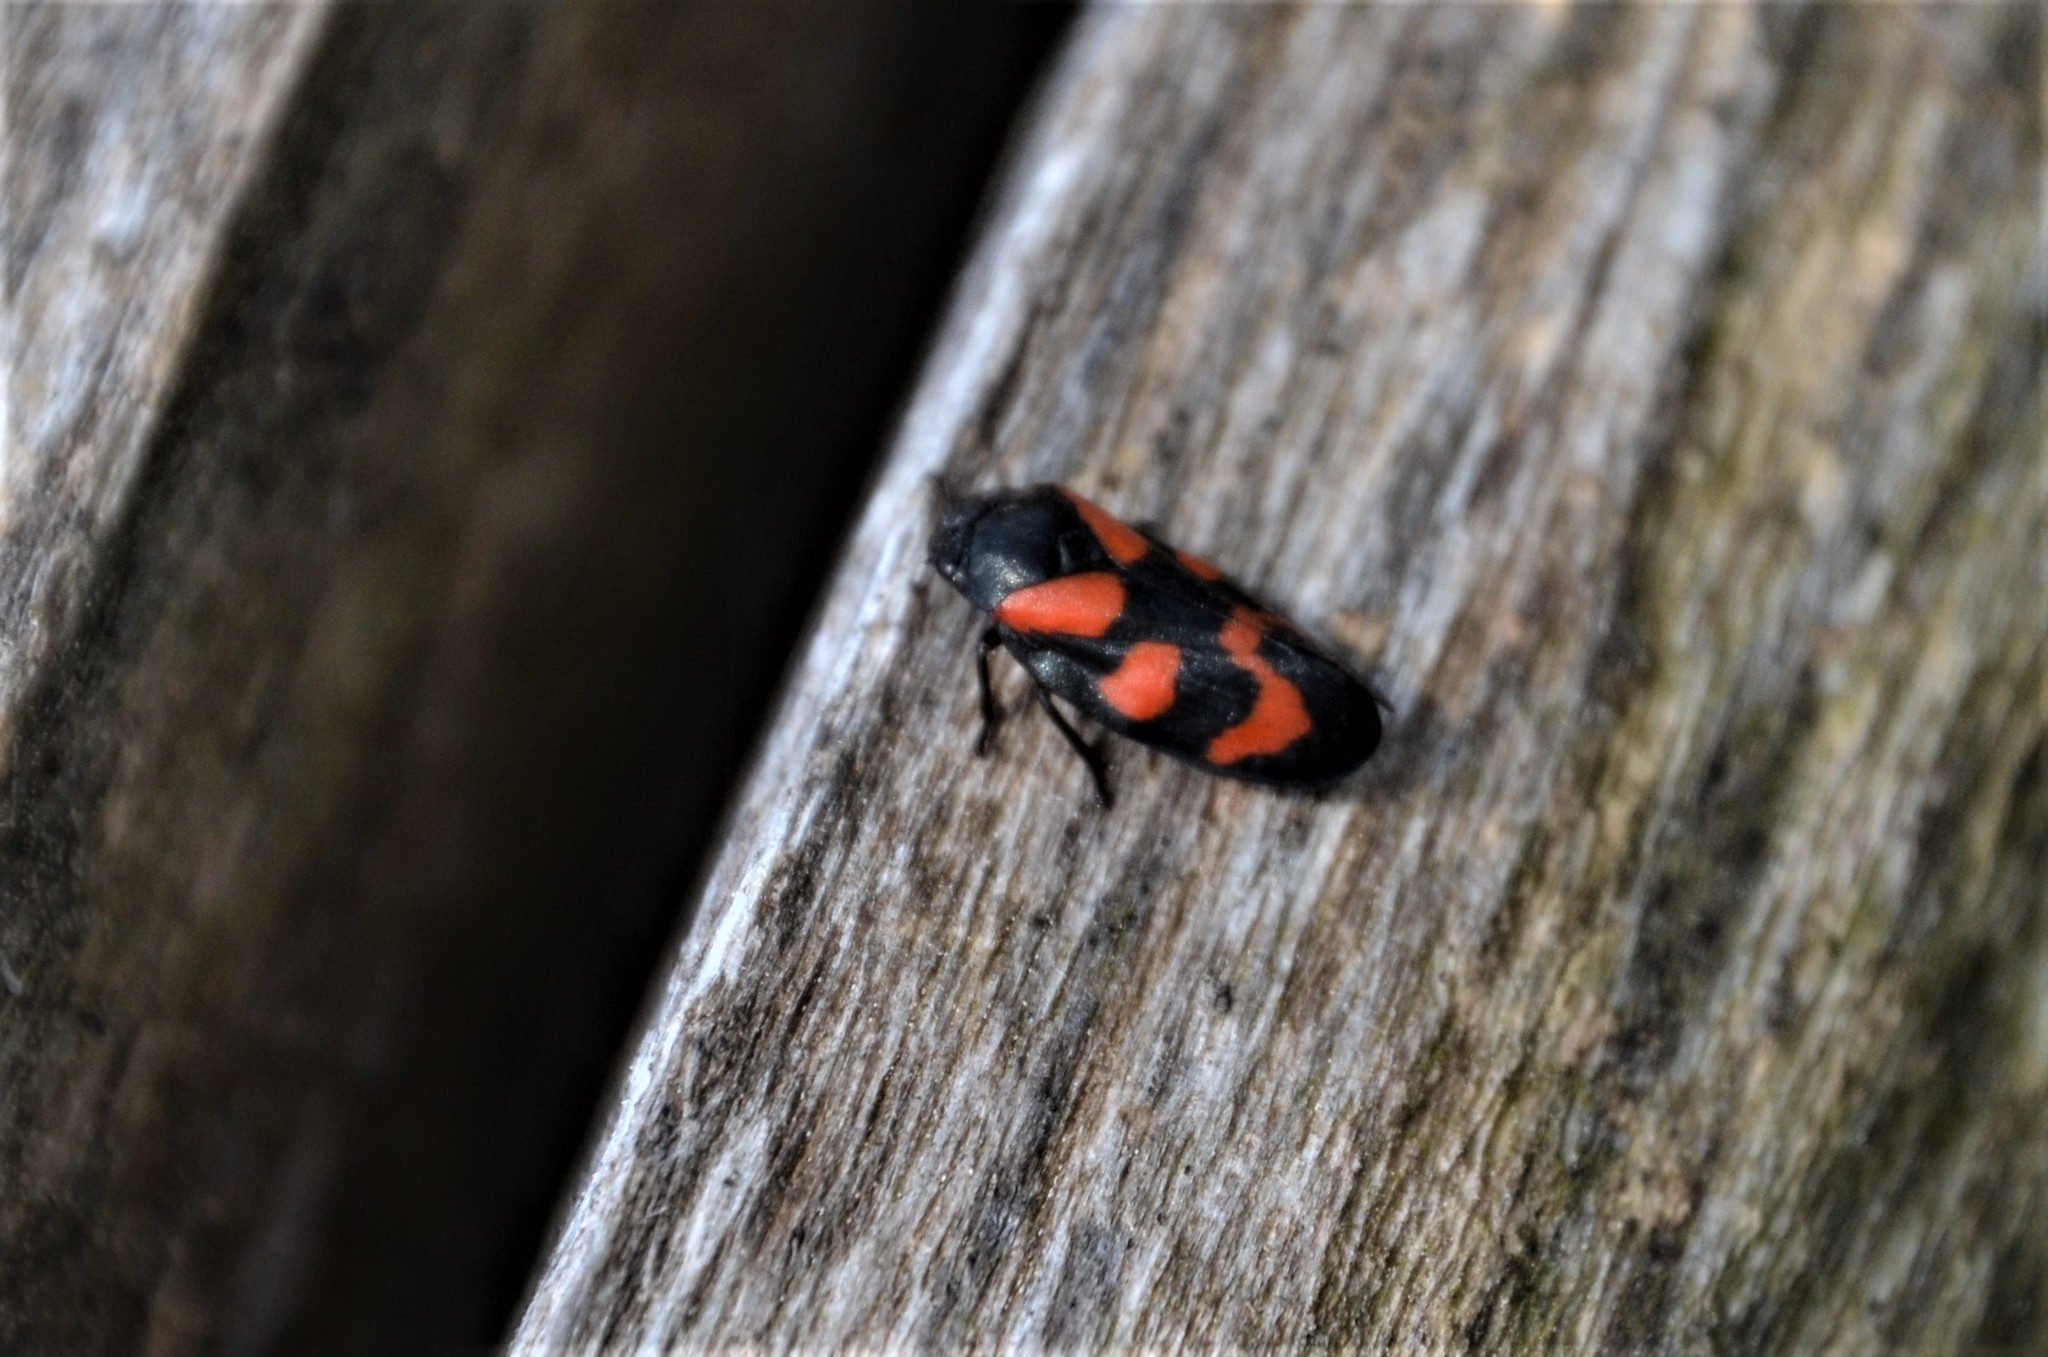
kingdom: Animalia
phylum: Arthropoda
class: Insecta
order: Hemiptera
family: Cercopidae
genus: Cercopis
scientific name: Cercopis vulnerata
